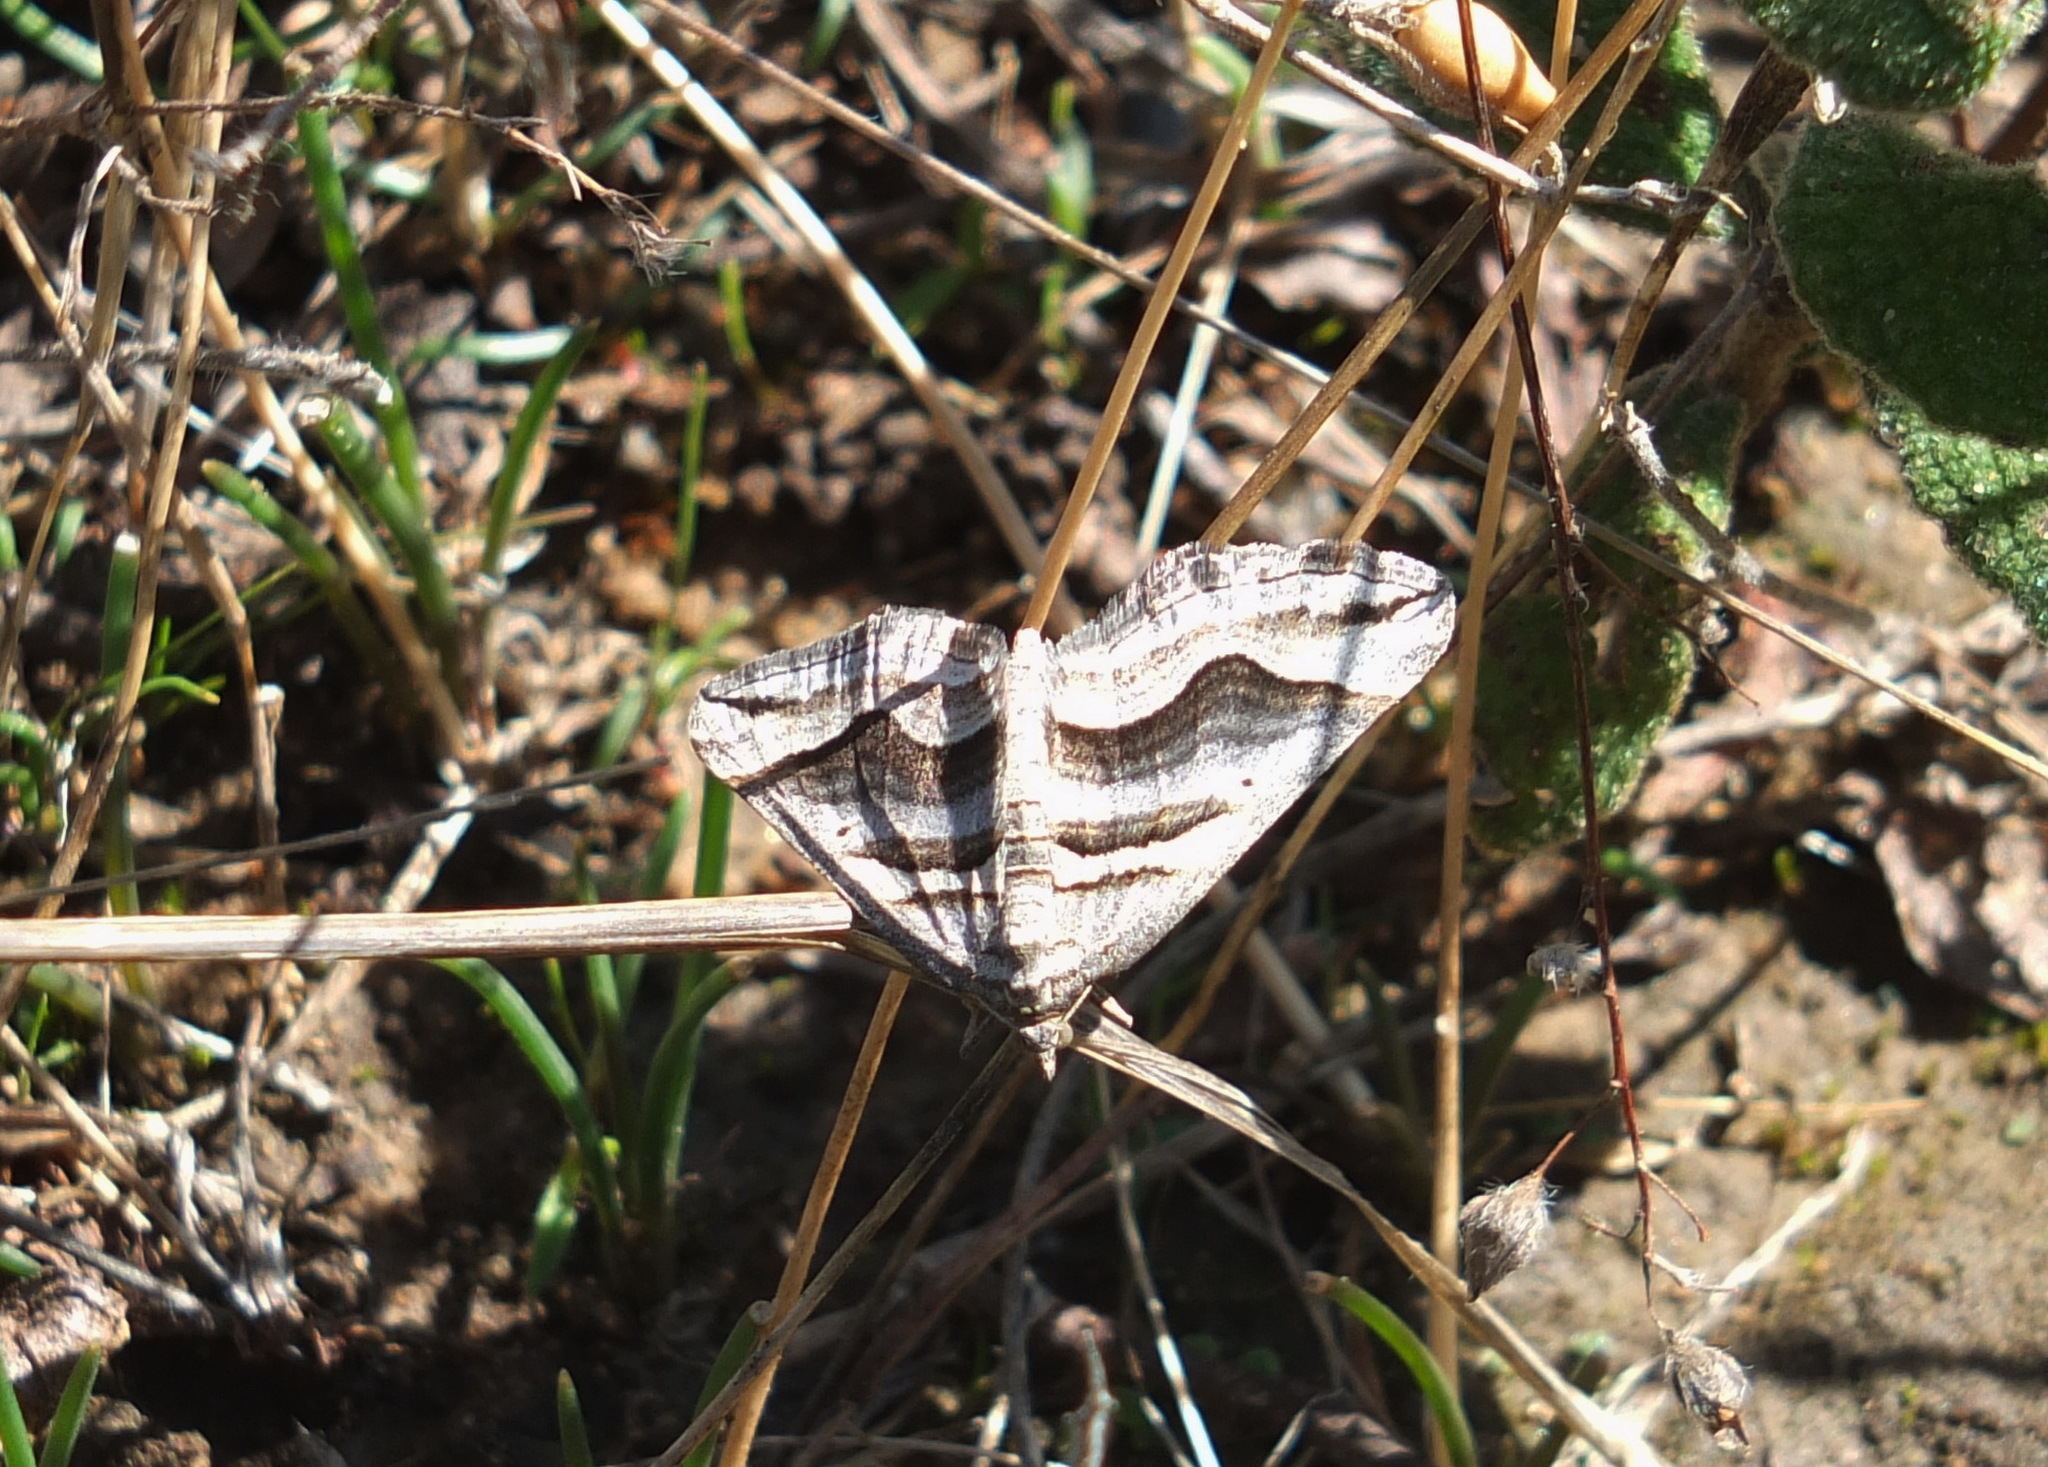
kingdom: Animalia
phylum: Arthropoda
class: Insecta
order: Lepidoptera
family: Geometridae
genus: Scotopteryx
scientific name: Scotopteryx peribolata
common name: Spanish carpet
